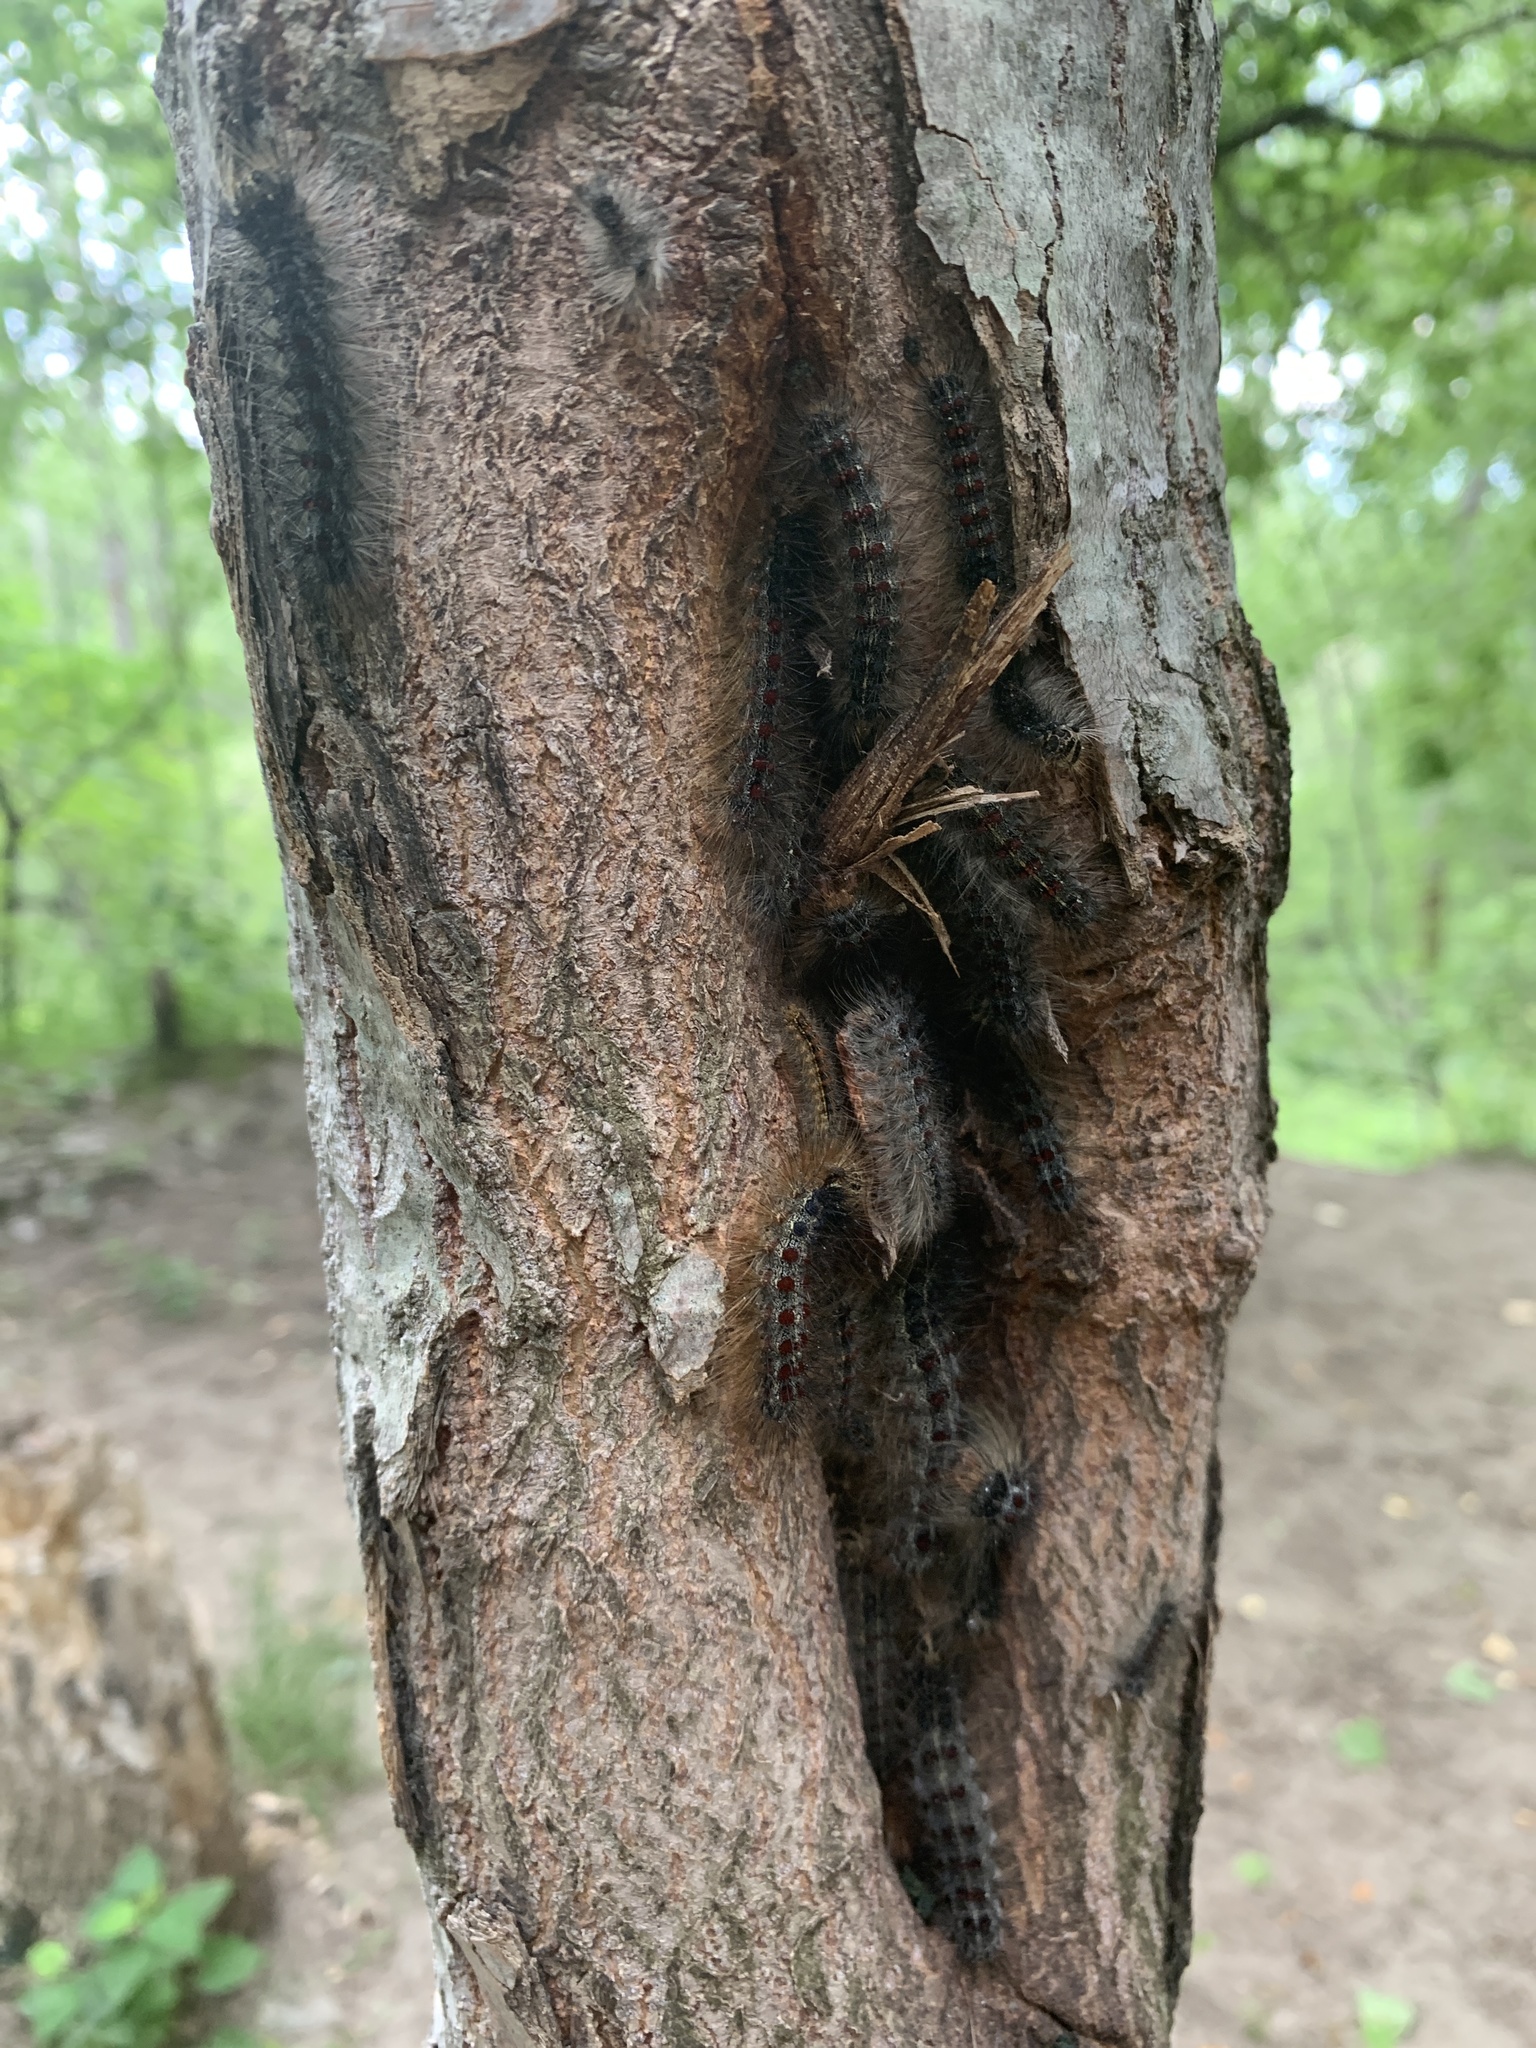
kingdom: Animalia
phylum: Arthropoda
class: Insecta
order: Lepidoptera
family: Erebidae
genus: Lymantria
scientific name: Lymantria dispar
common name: Gypsy moth
